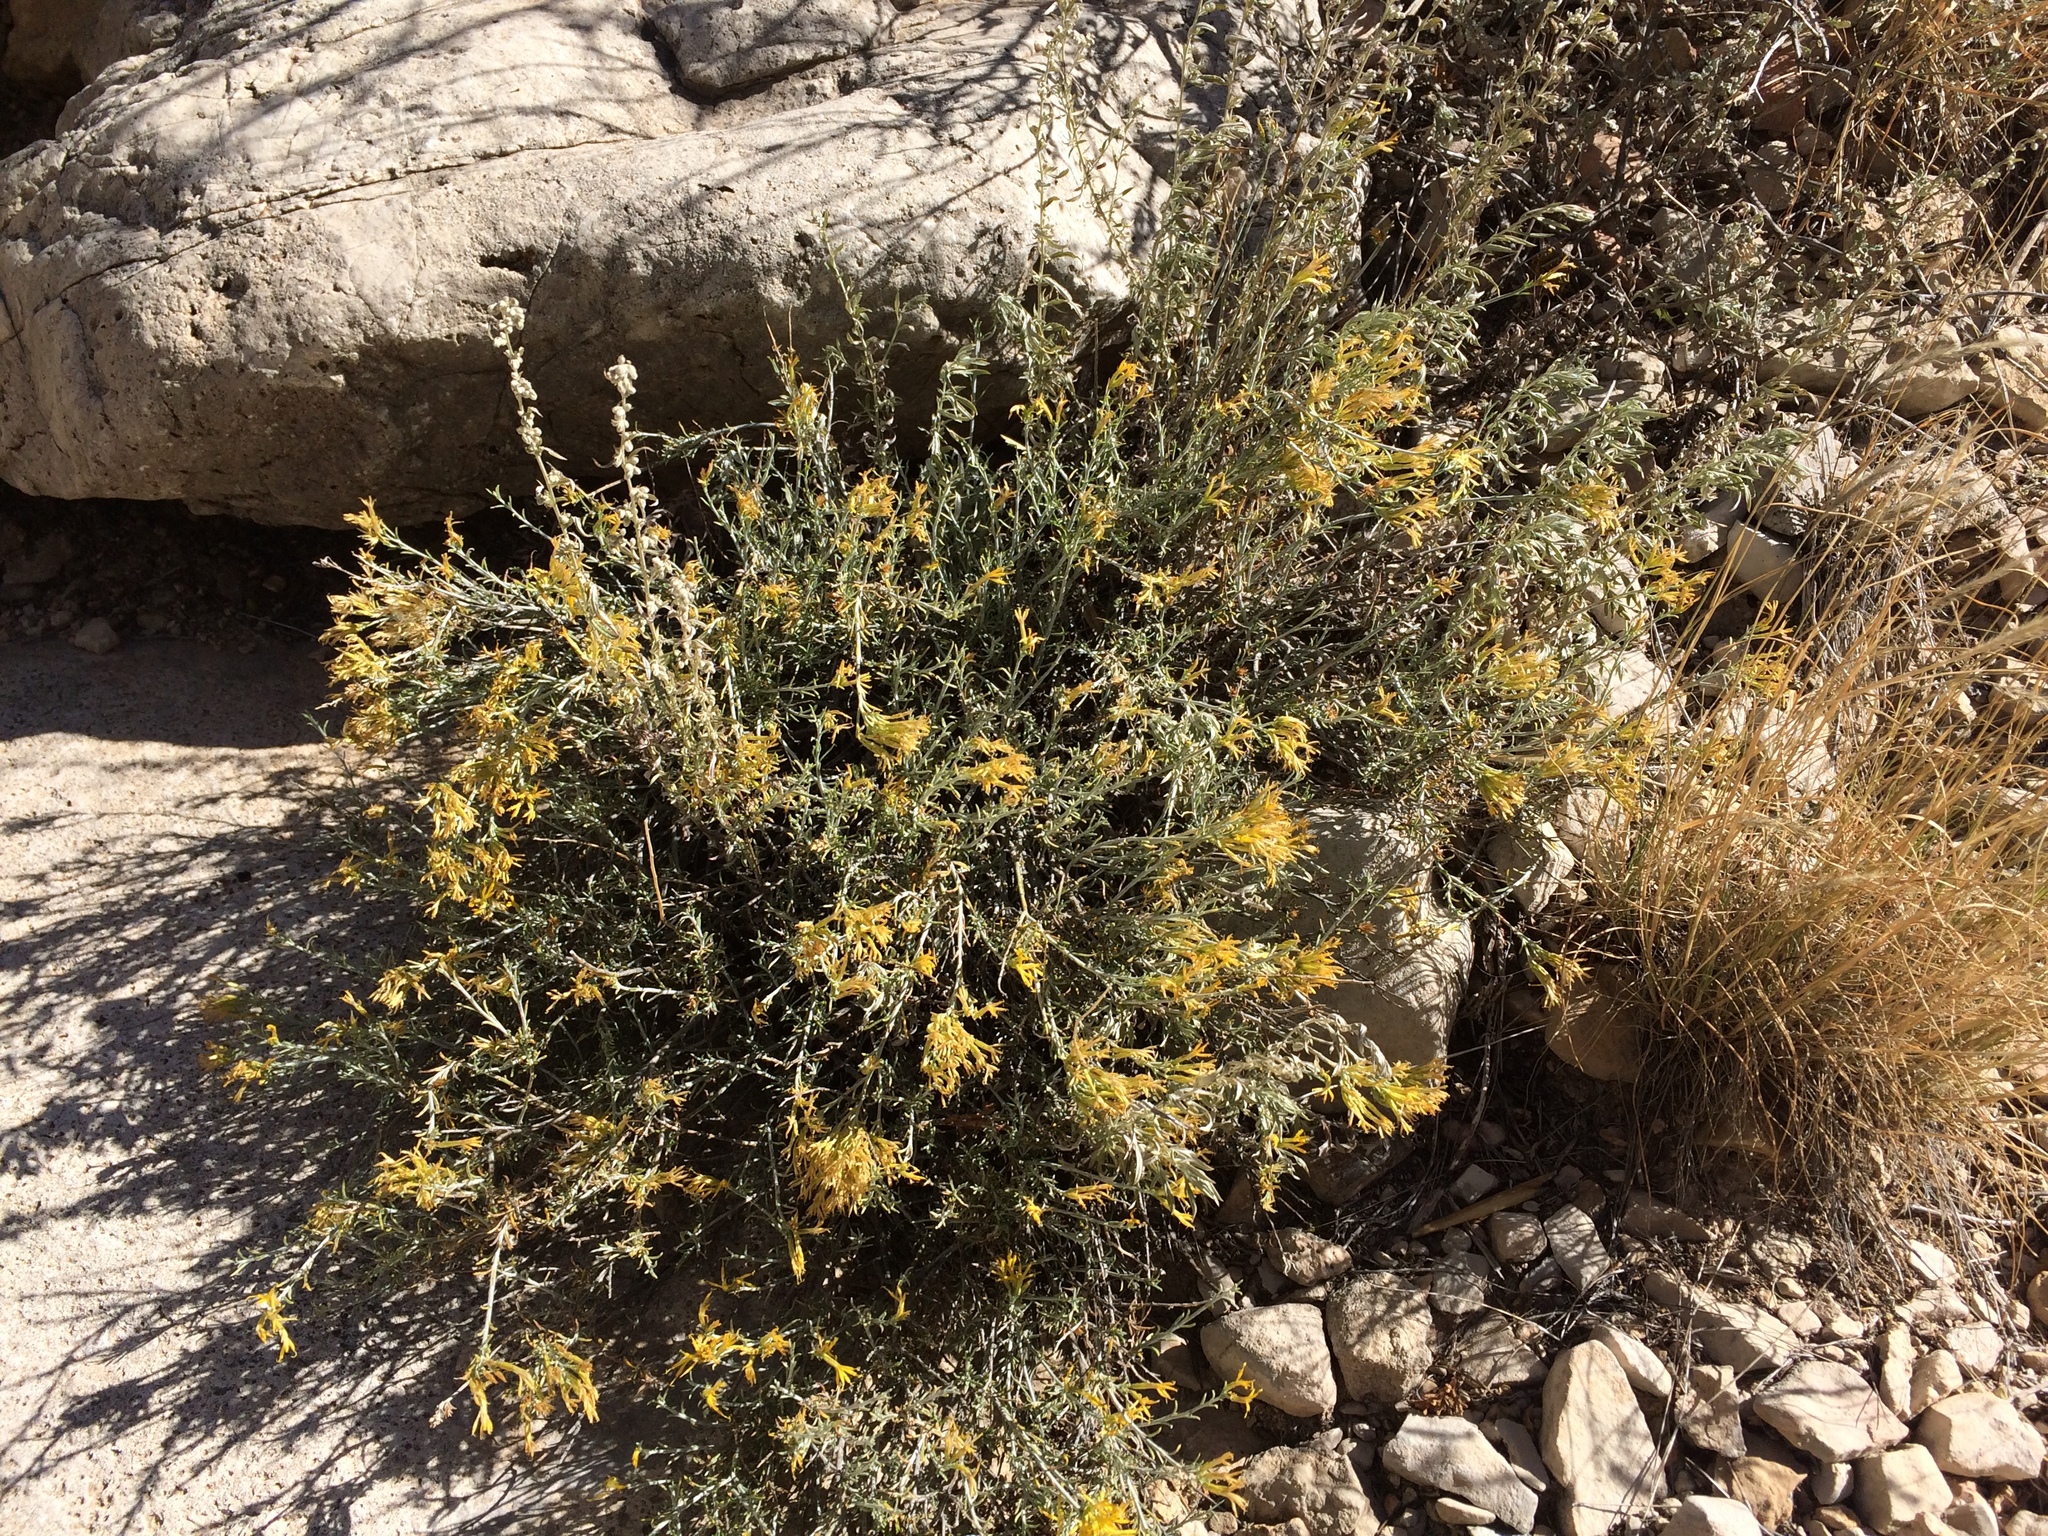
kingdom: Plantae
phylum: Tracheophyta
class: Magnoliopsida
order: Asterales
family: Asteraceae
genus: Ericameria
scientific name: Ericameria nauseosa
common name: Rubber rabbitbrush
